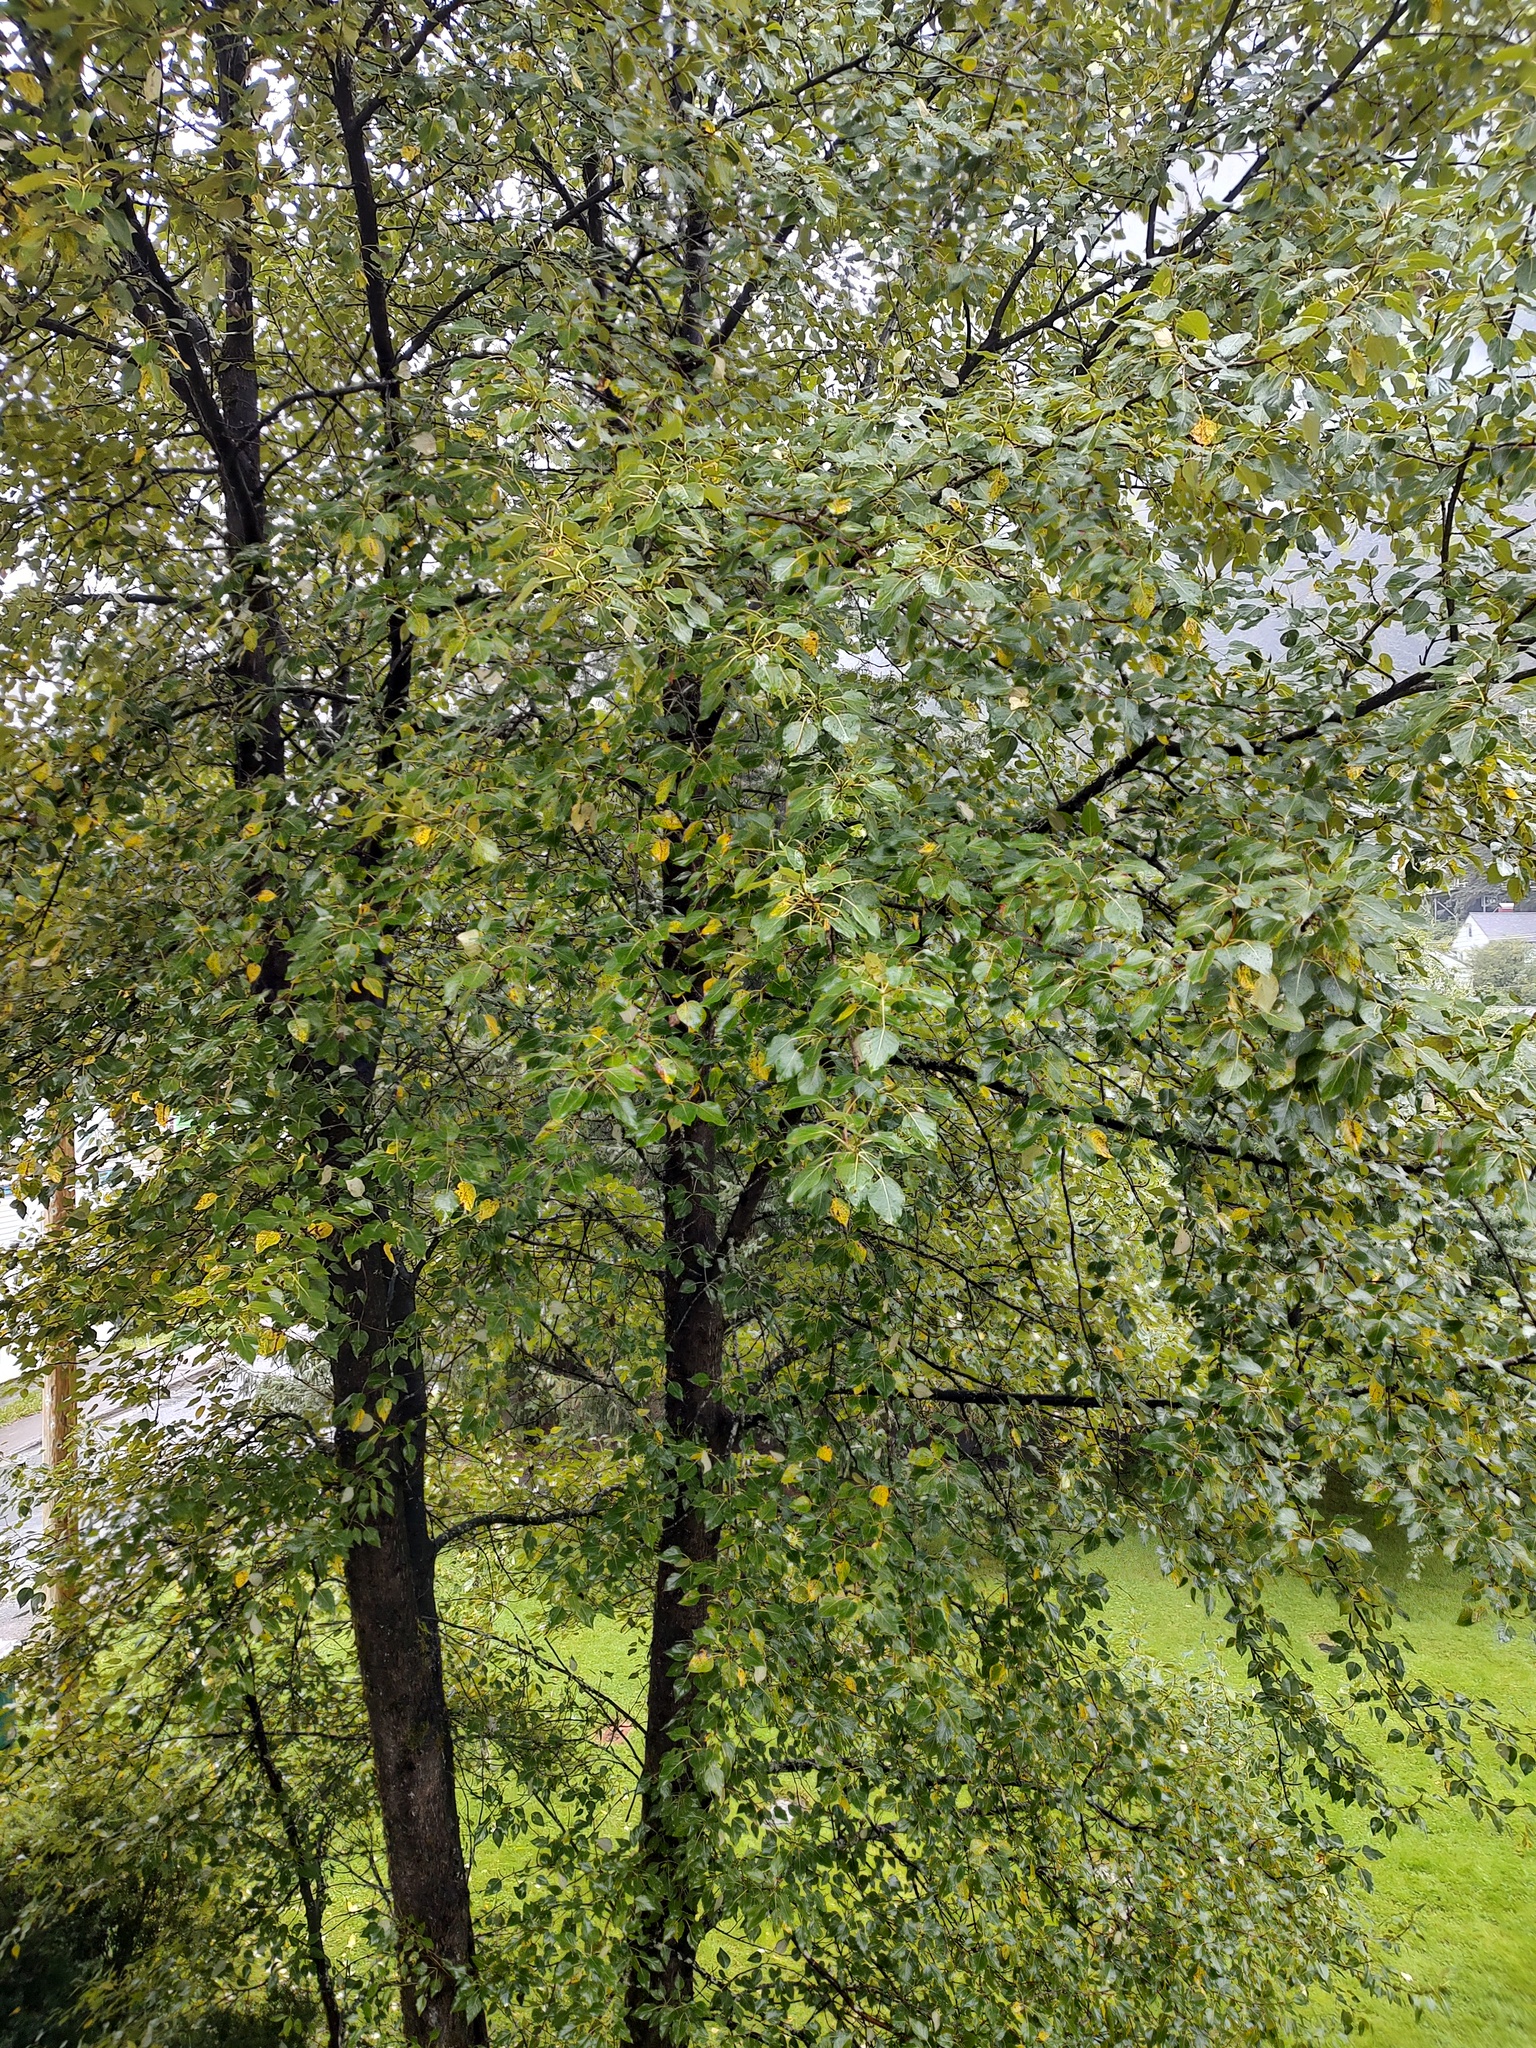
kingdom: Plantae
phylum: Tracheophyta
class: Magnoliopsida
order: Malpighiales
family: Salicaceae
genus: Populus
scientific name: Populus trichocarpa
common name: Black cottonwood
